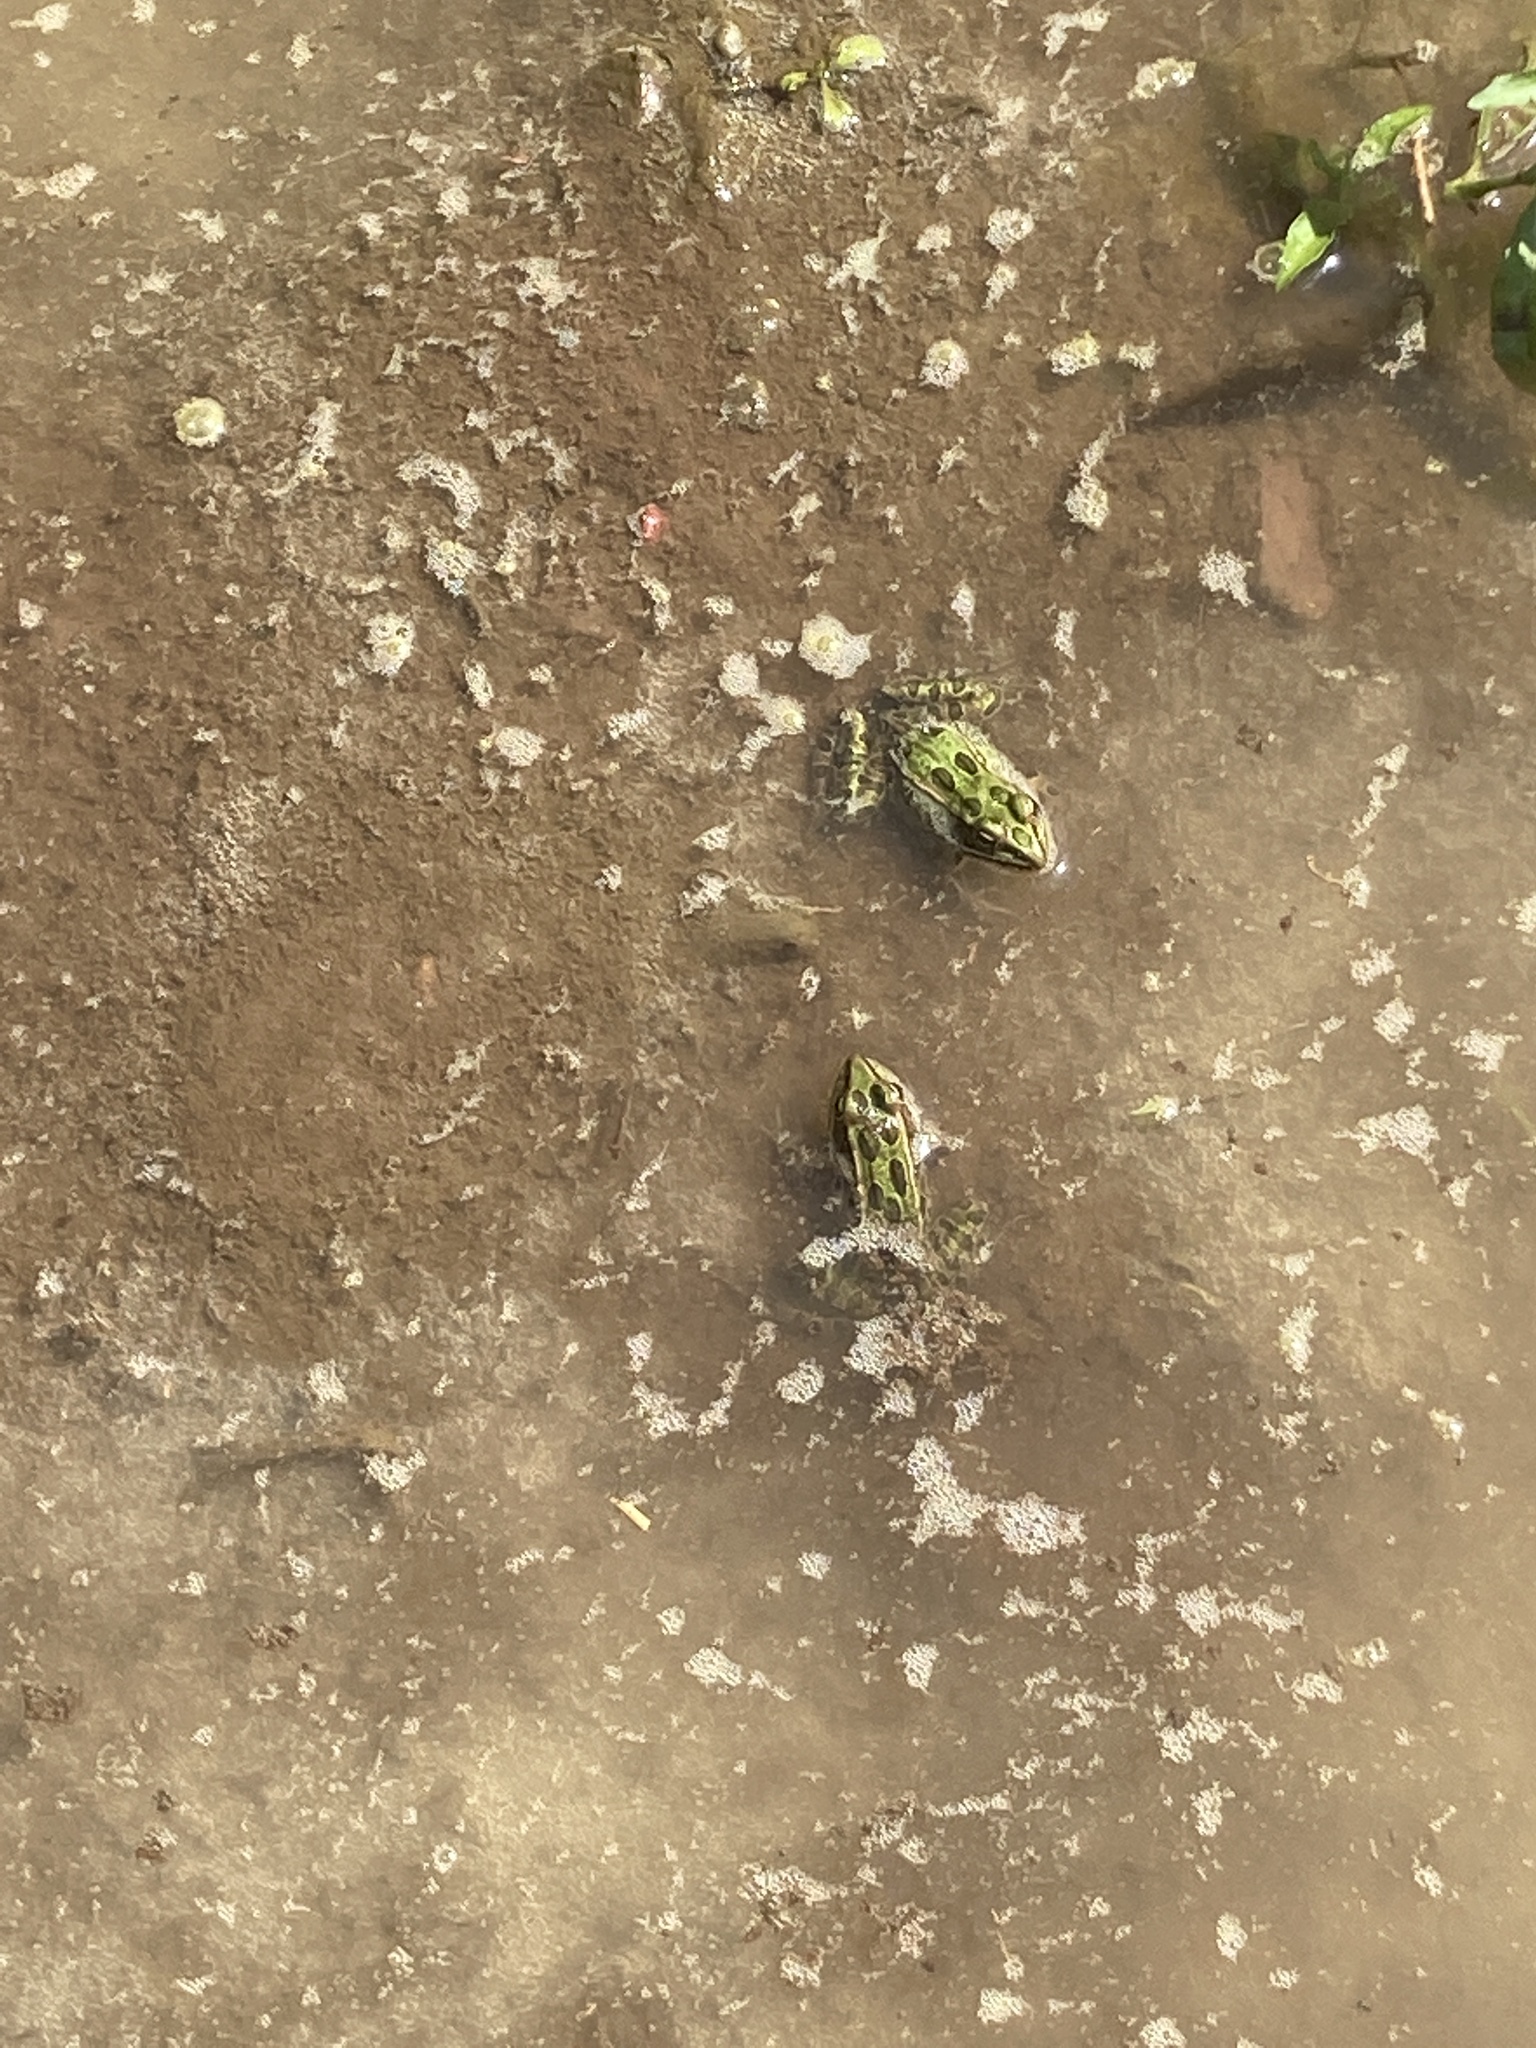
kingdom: Animalia
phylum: Chordata
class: Amphibia
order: Anura
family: Ranidae
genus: Lithobates
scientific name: Lithobates pipiens
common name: Northern leopard frog
